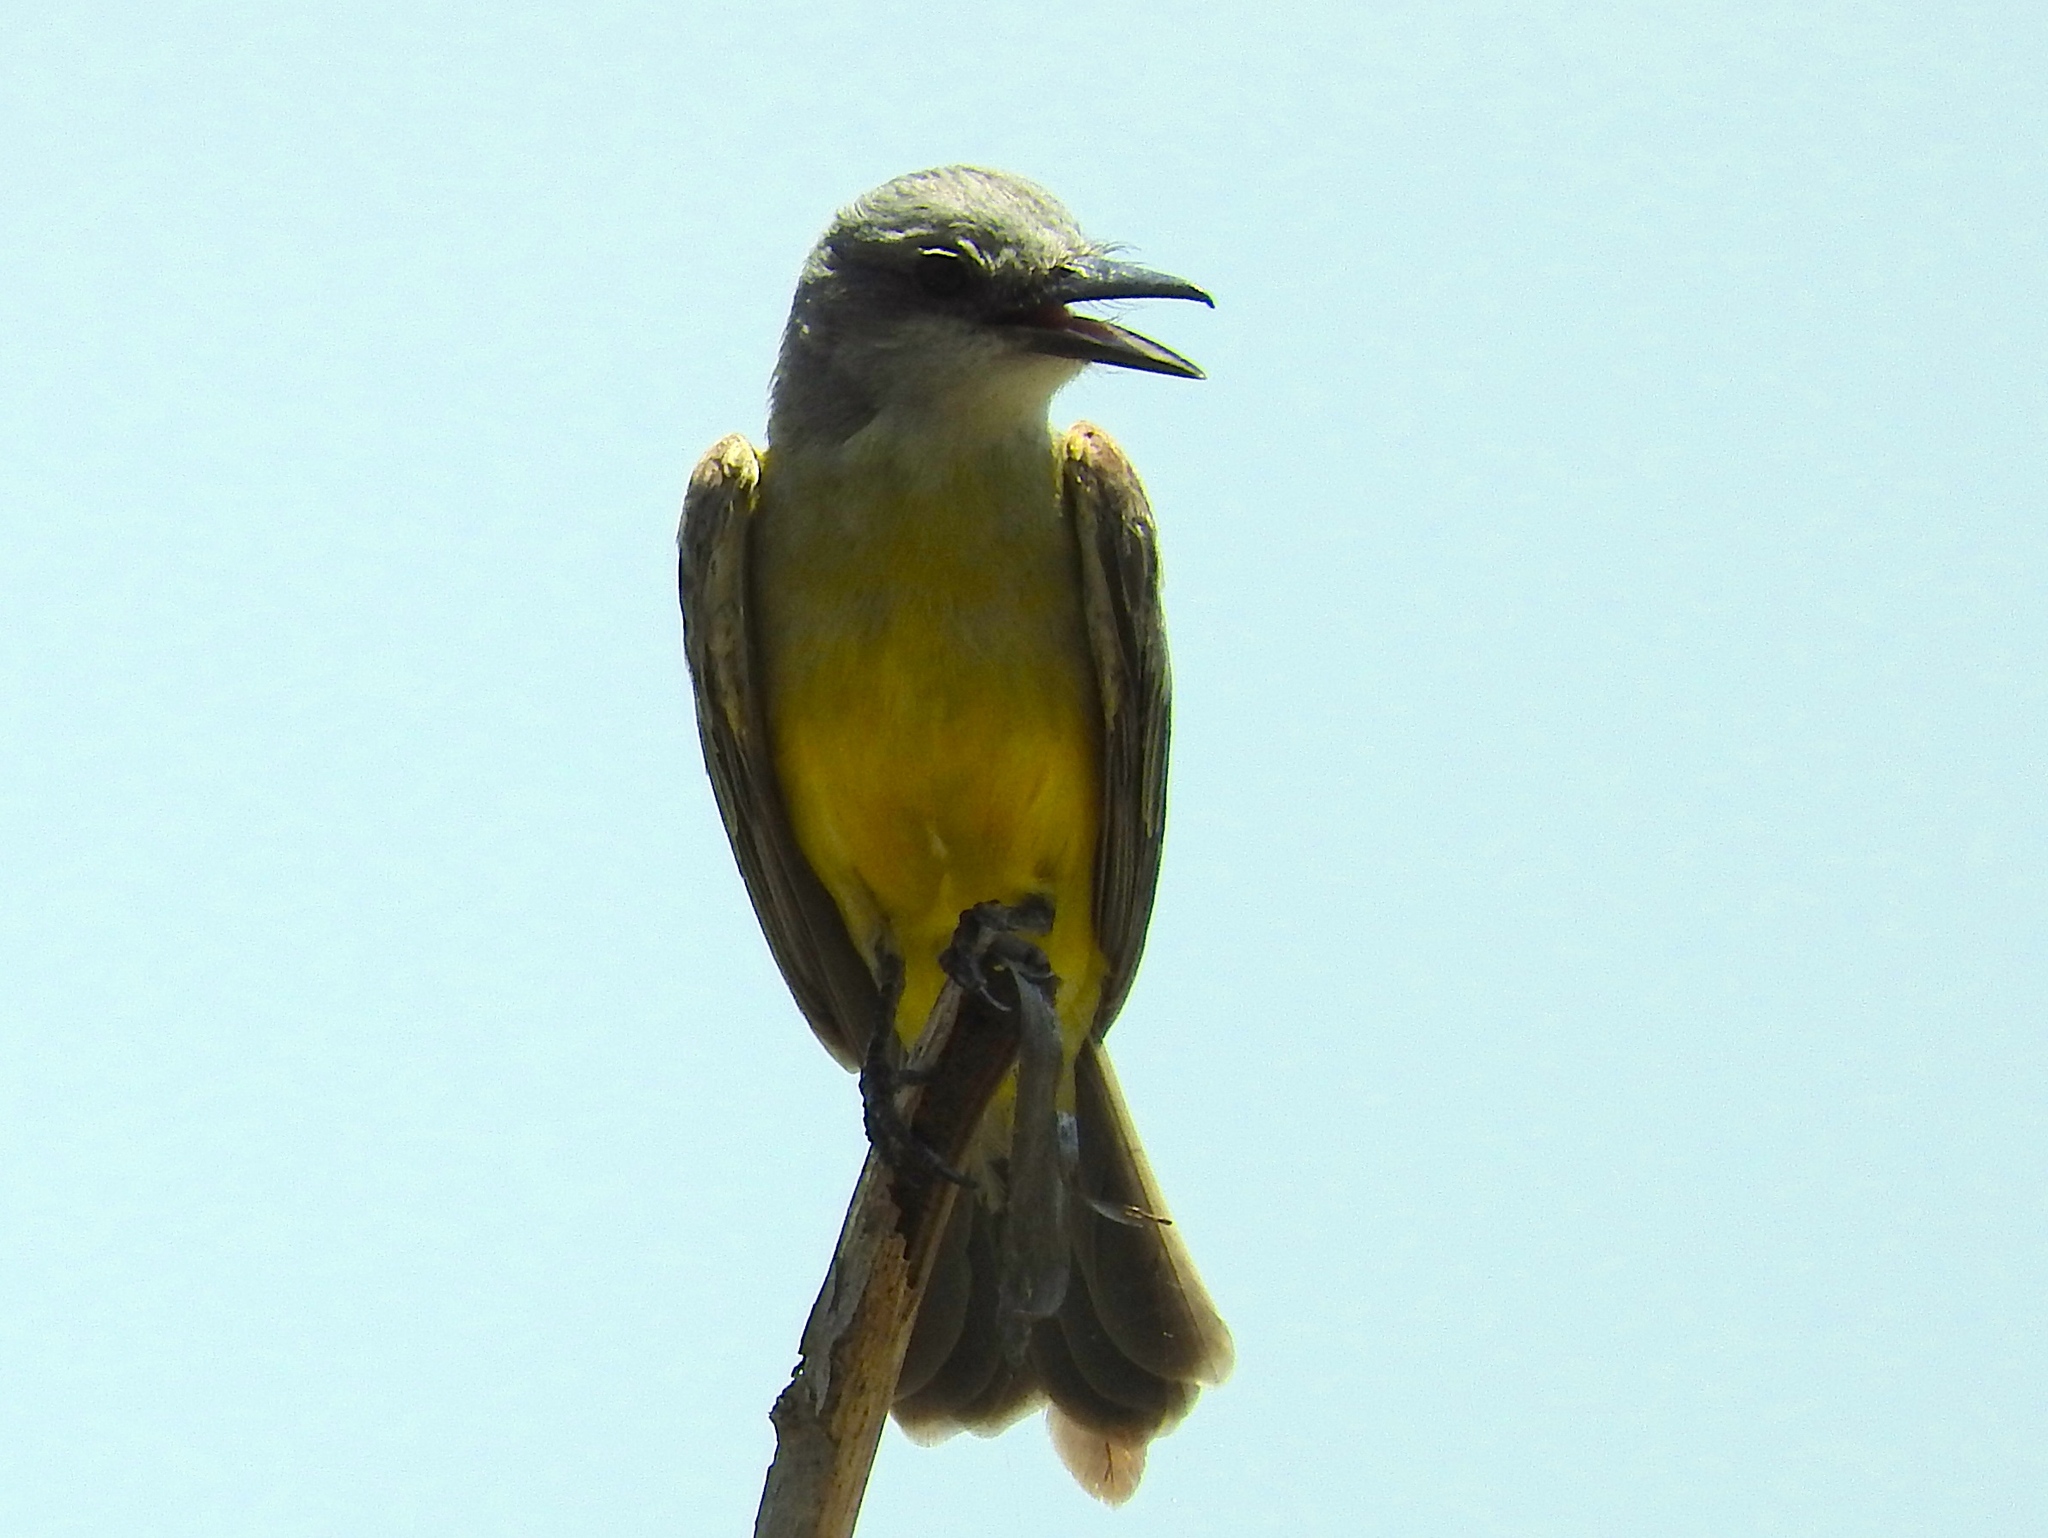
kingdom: Animalia
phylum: Chordata
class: Aves
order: Passeriformes
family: Tyrannidae
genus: Tyrannus
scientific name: Tyrannus melancholicus
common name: Tropical kingbird
